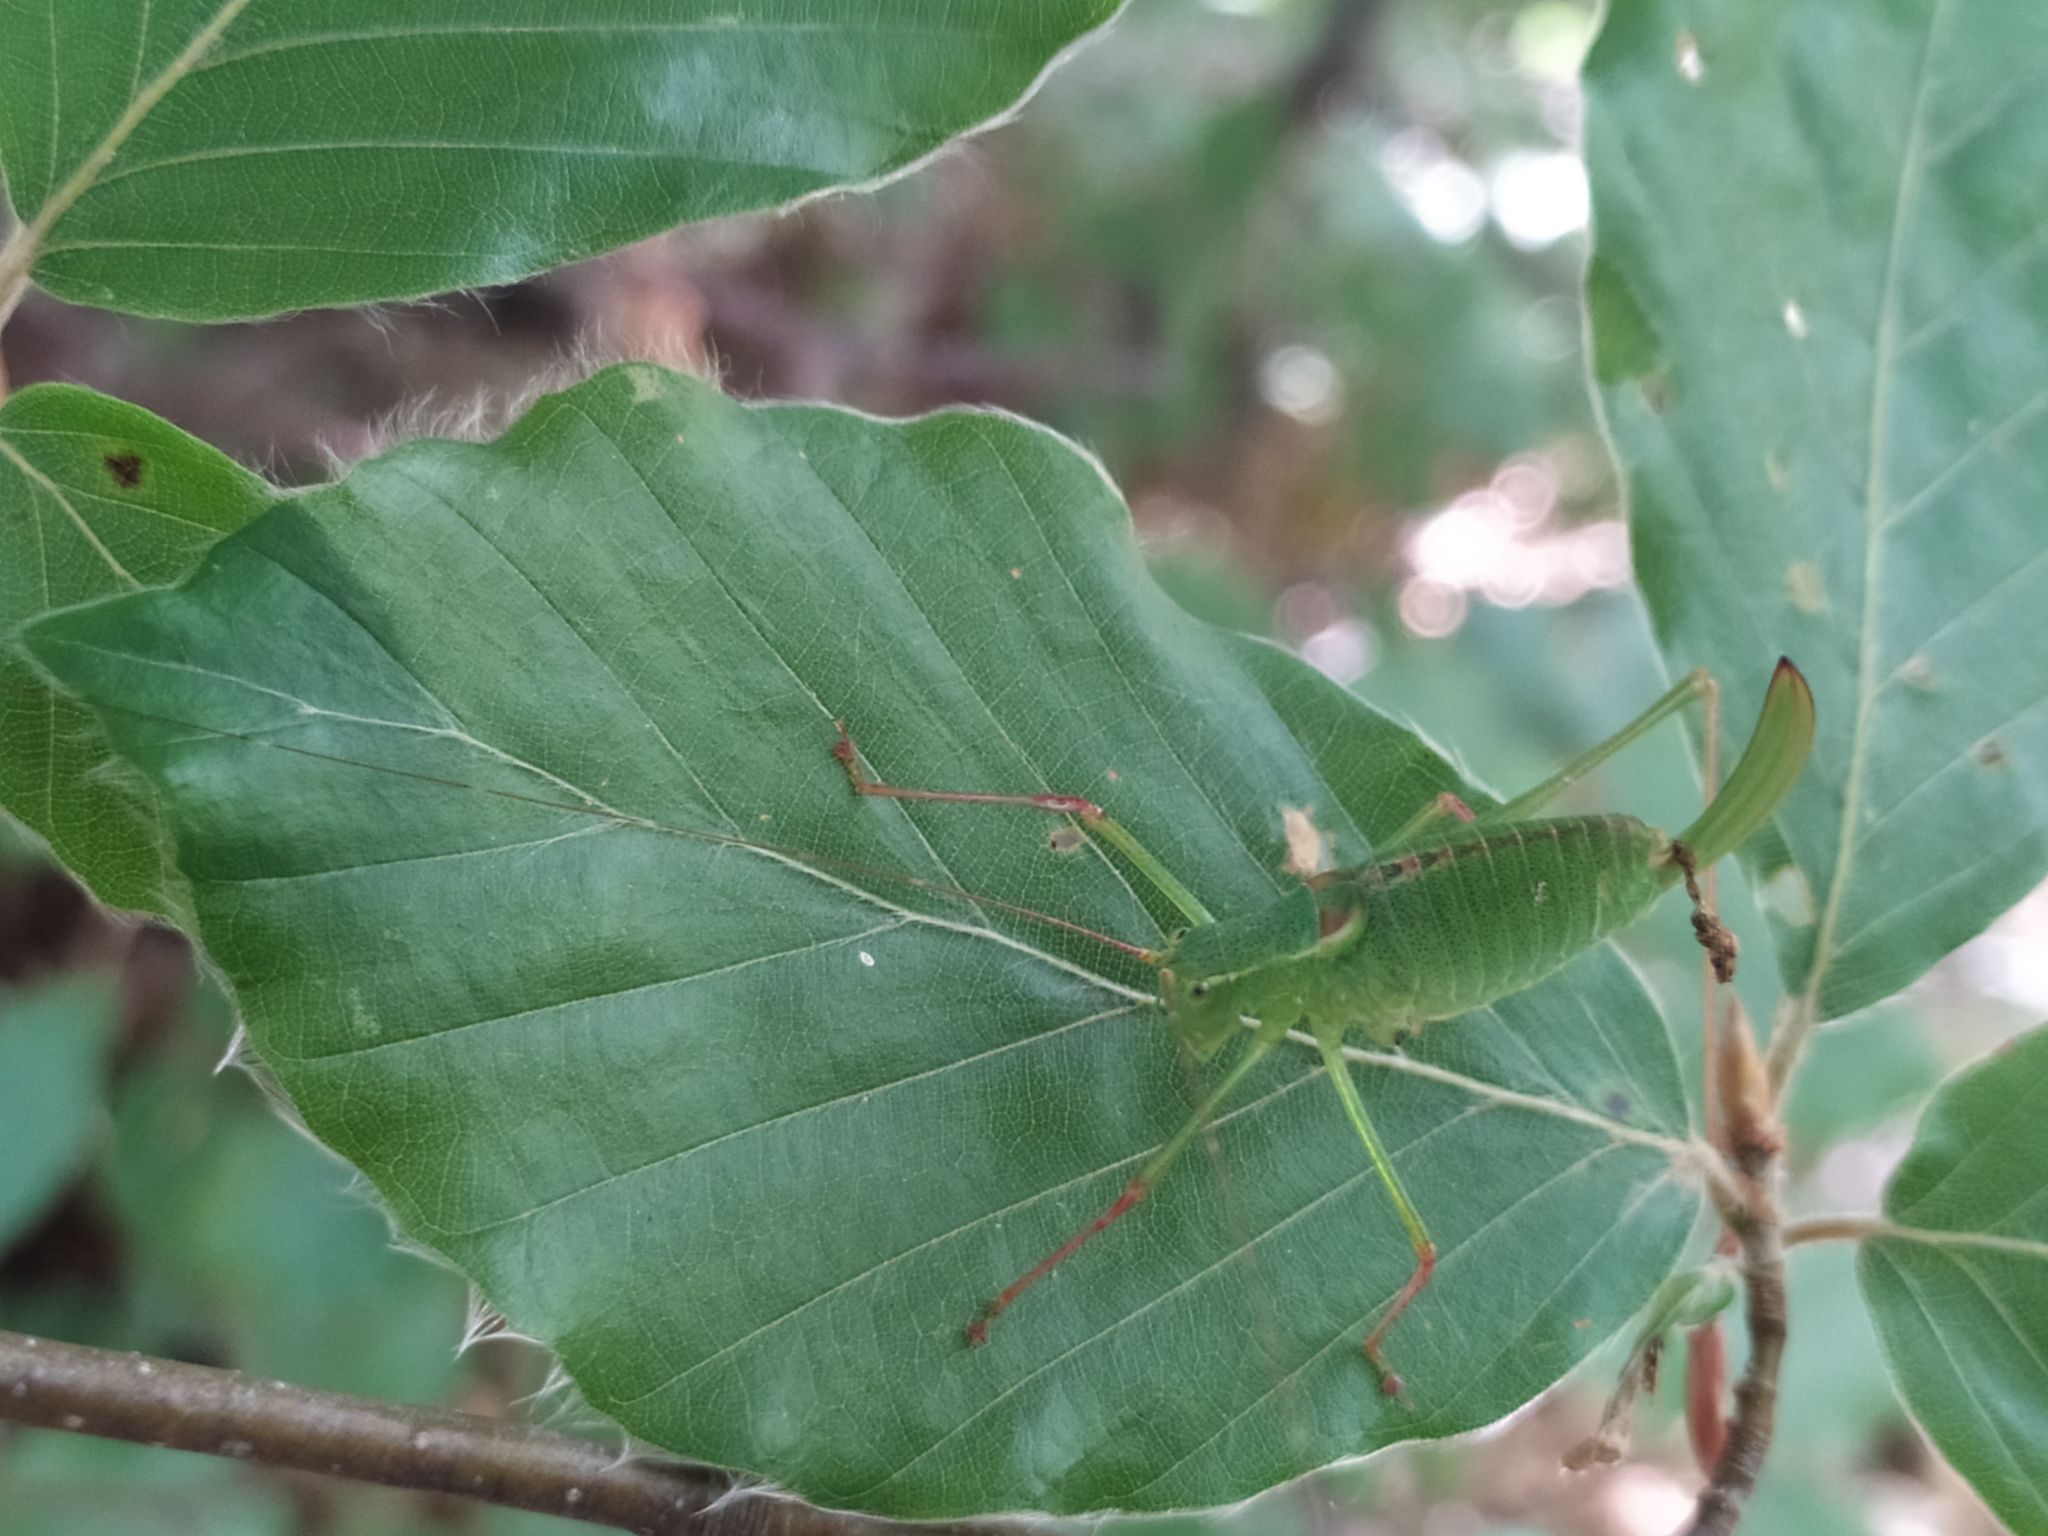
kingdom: Plantae
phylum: Tracheophyta
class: Magnoliopsida
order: Fagales
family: Fagaceae
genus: Fagus
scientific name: Fagus sylvatica
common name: Beech
